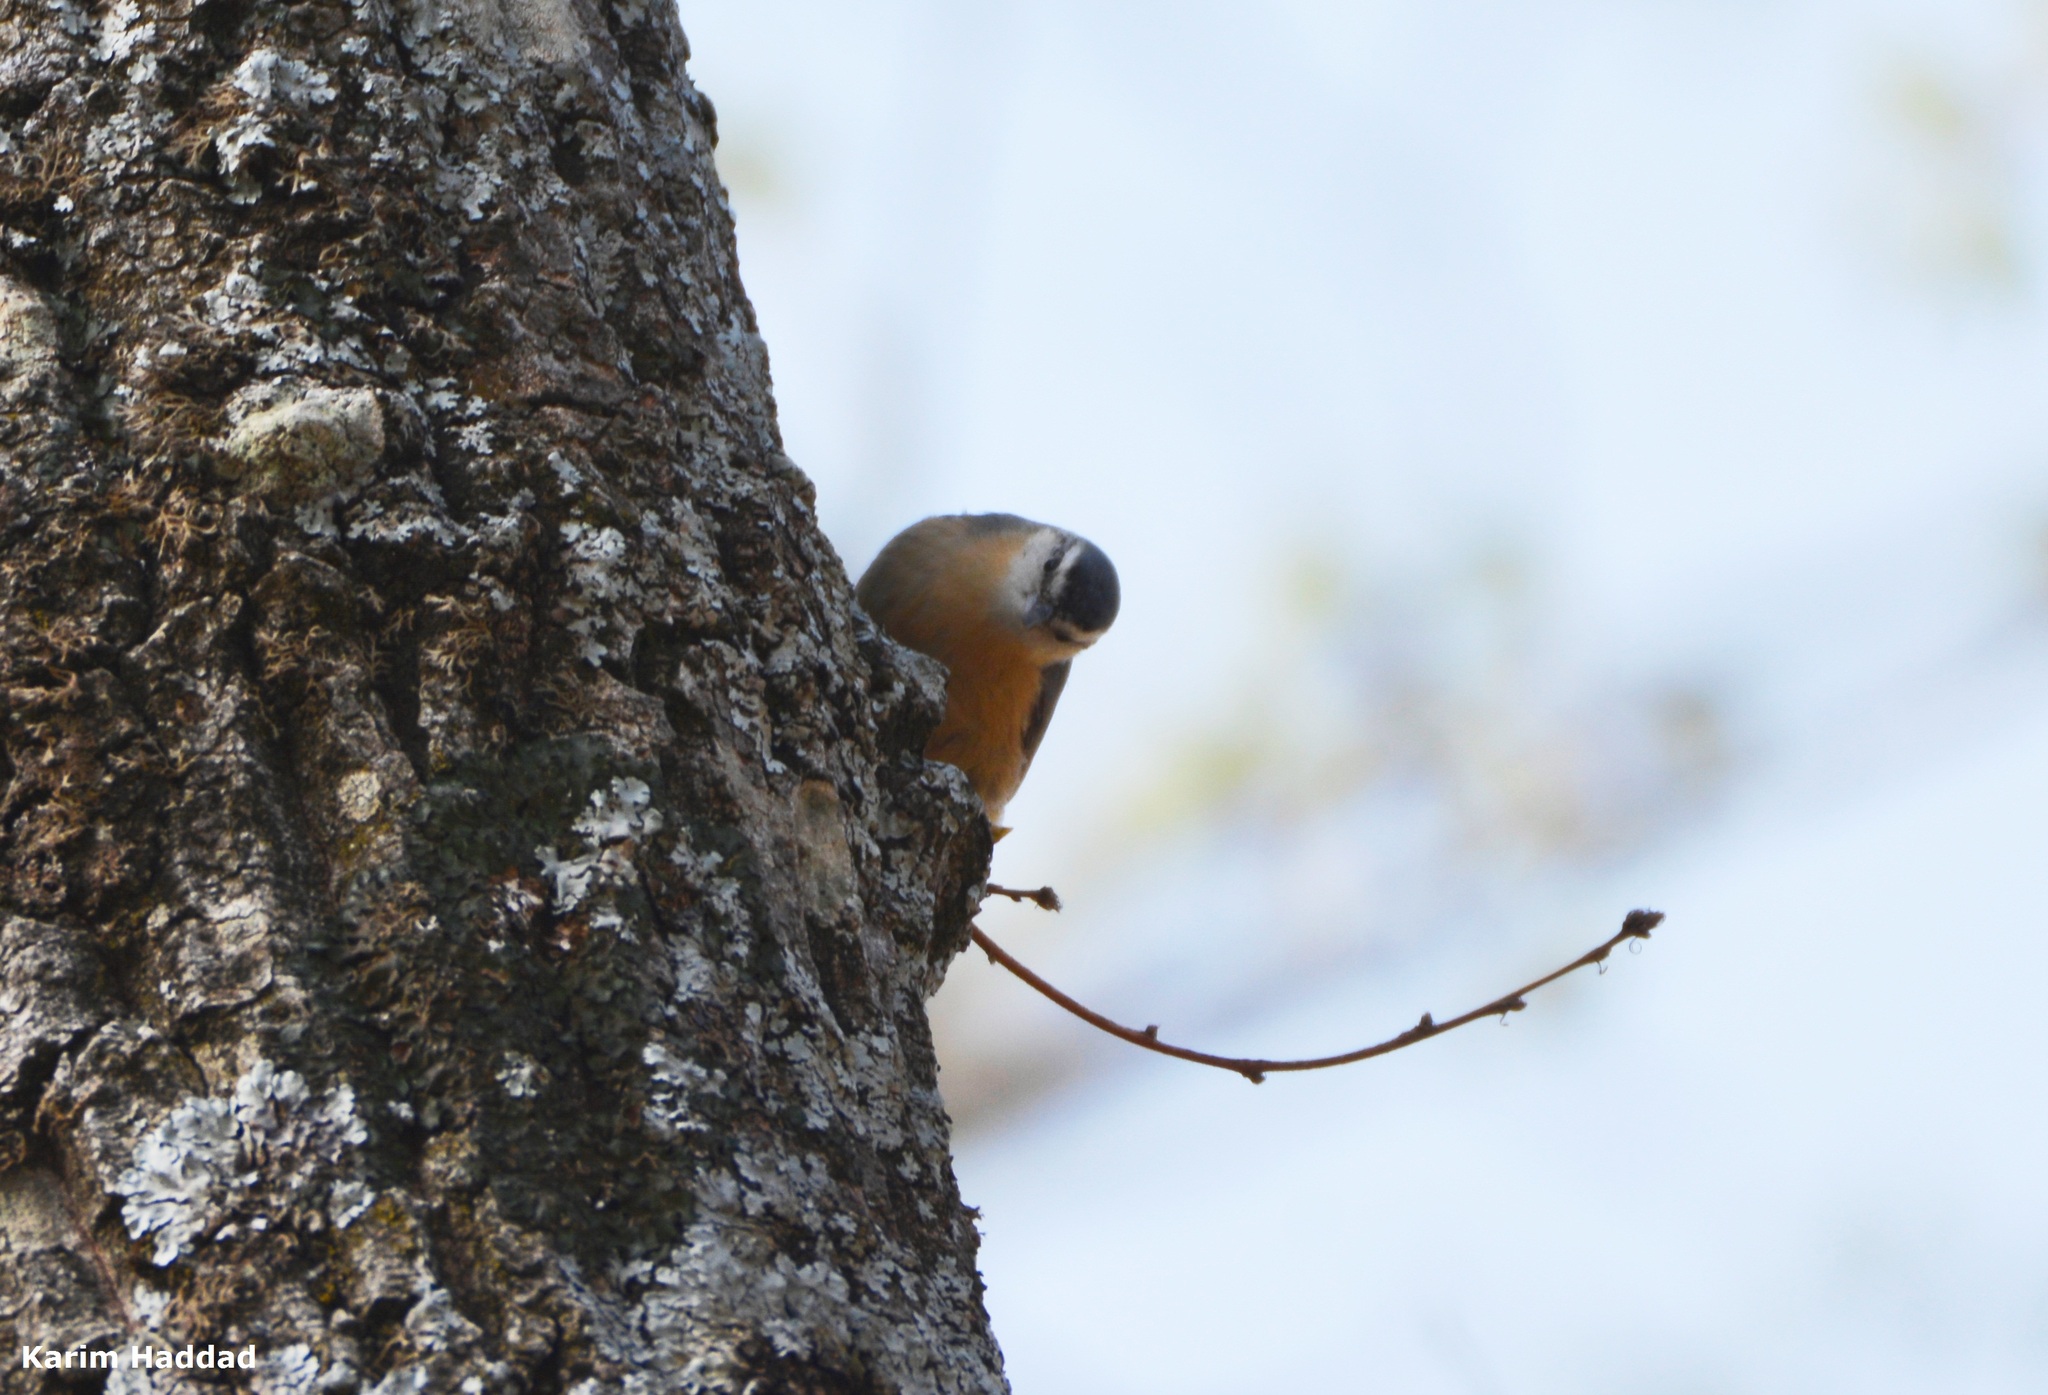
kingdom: Animalia
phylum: Chordata
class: Aves
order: Passeriformes
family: Sittidae
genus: Sitta
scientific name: Sitta ledanti
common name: Algerian nuthatch
